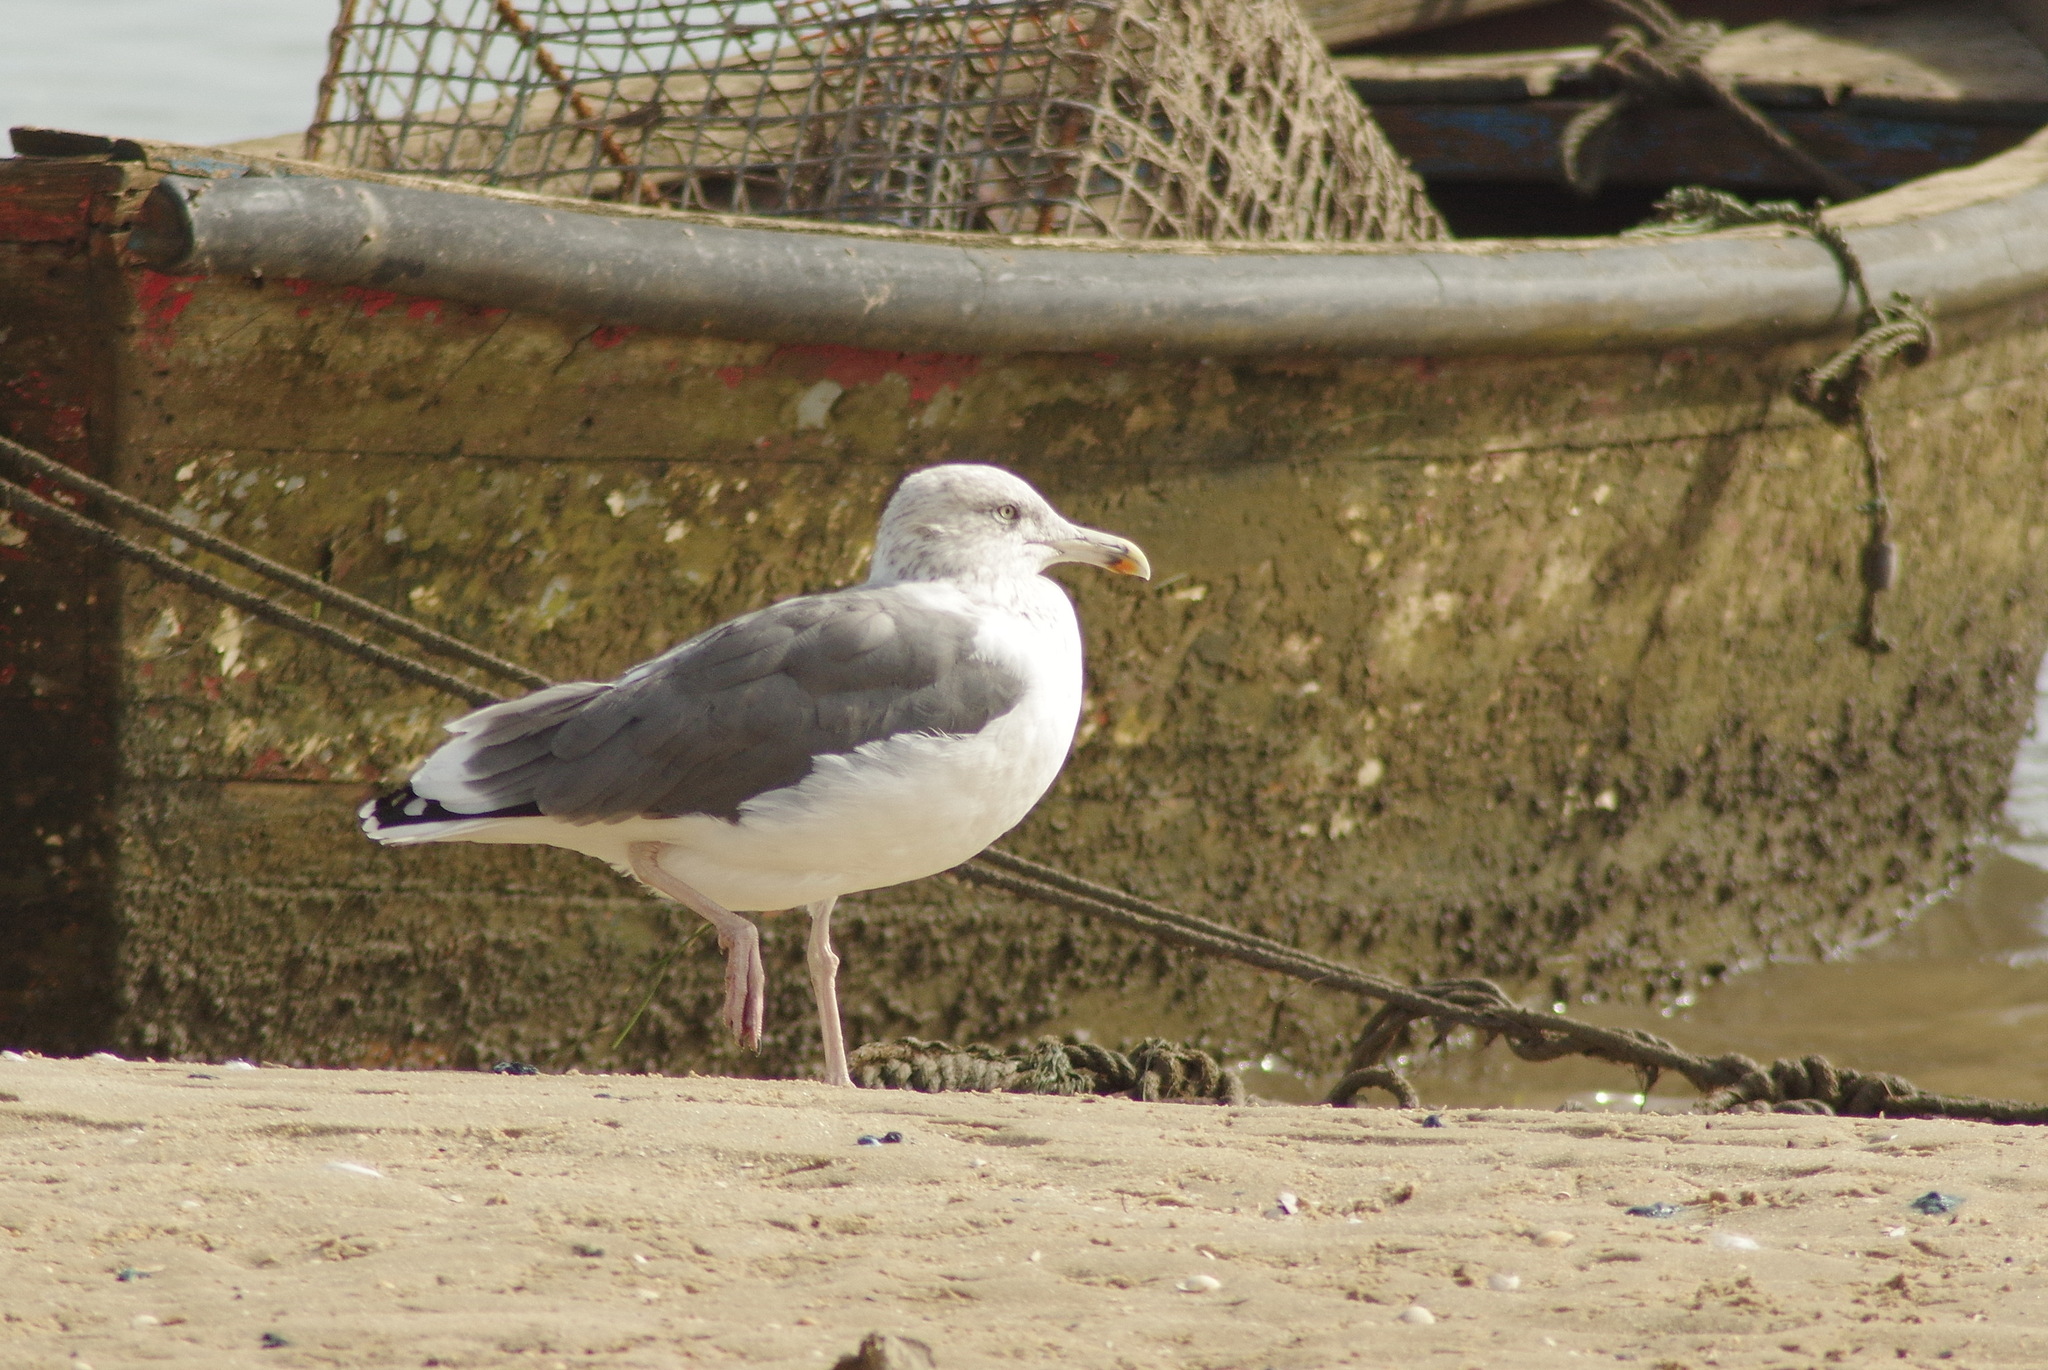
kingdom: Animalia
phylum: Chordata
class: Aves
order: Charadriiformes
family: Laridae
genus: Larus
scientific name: Larus michahellis
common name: Yellow-legged gull
